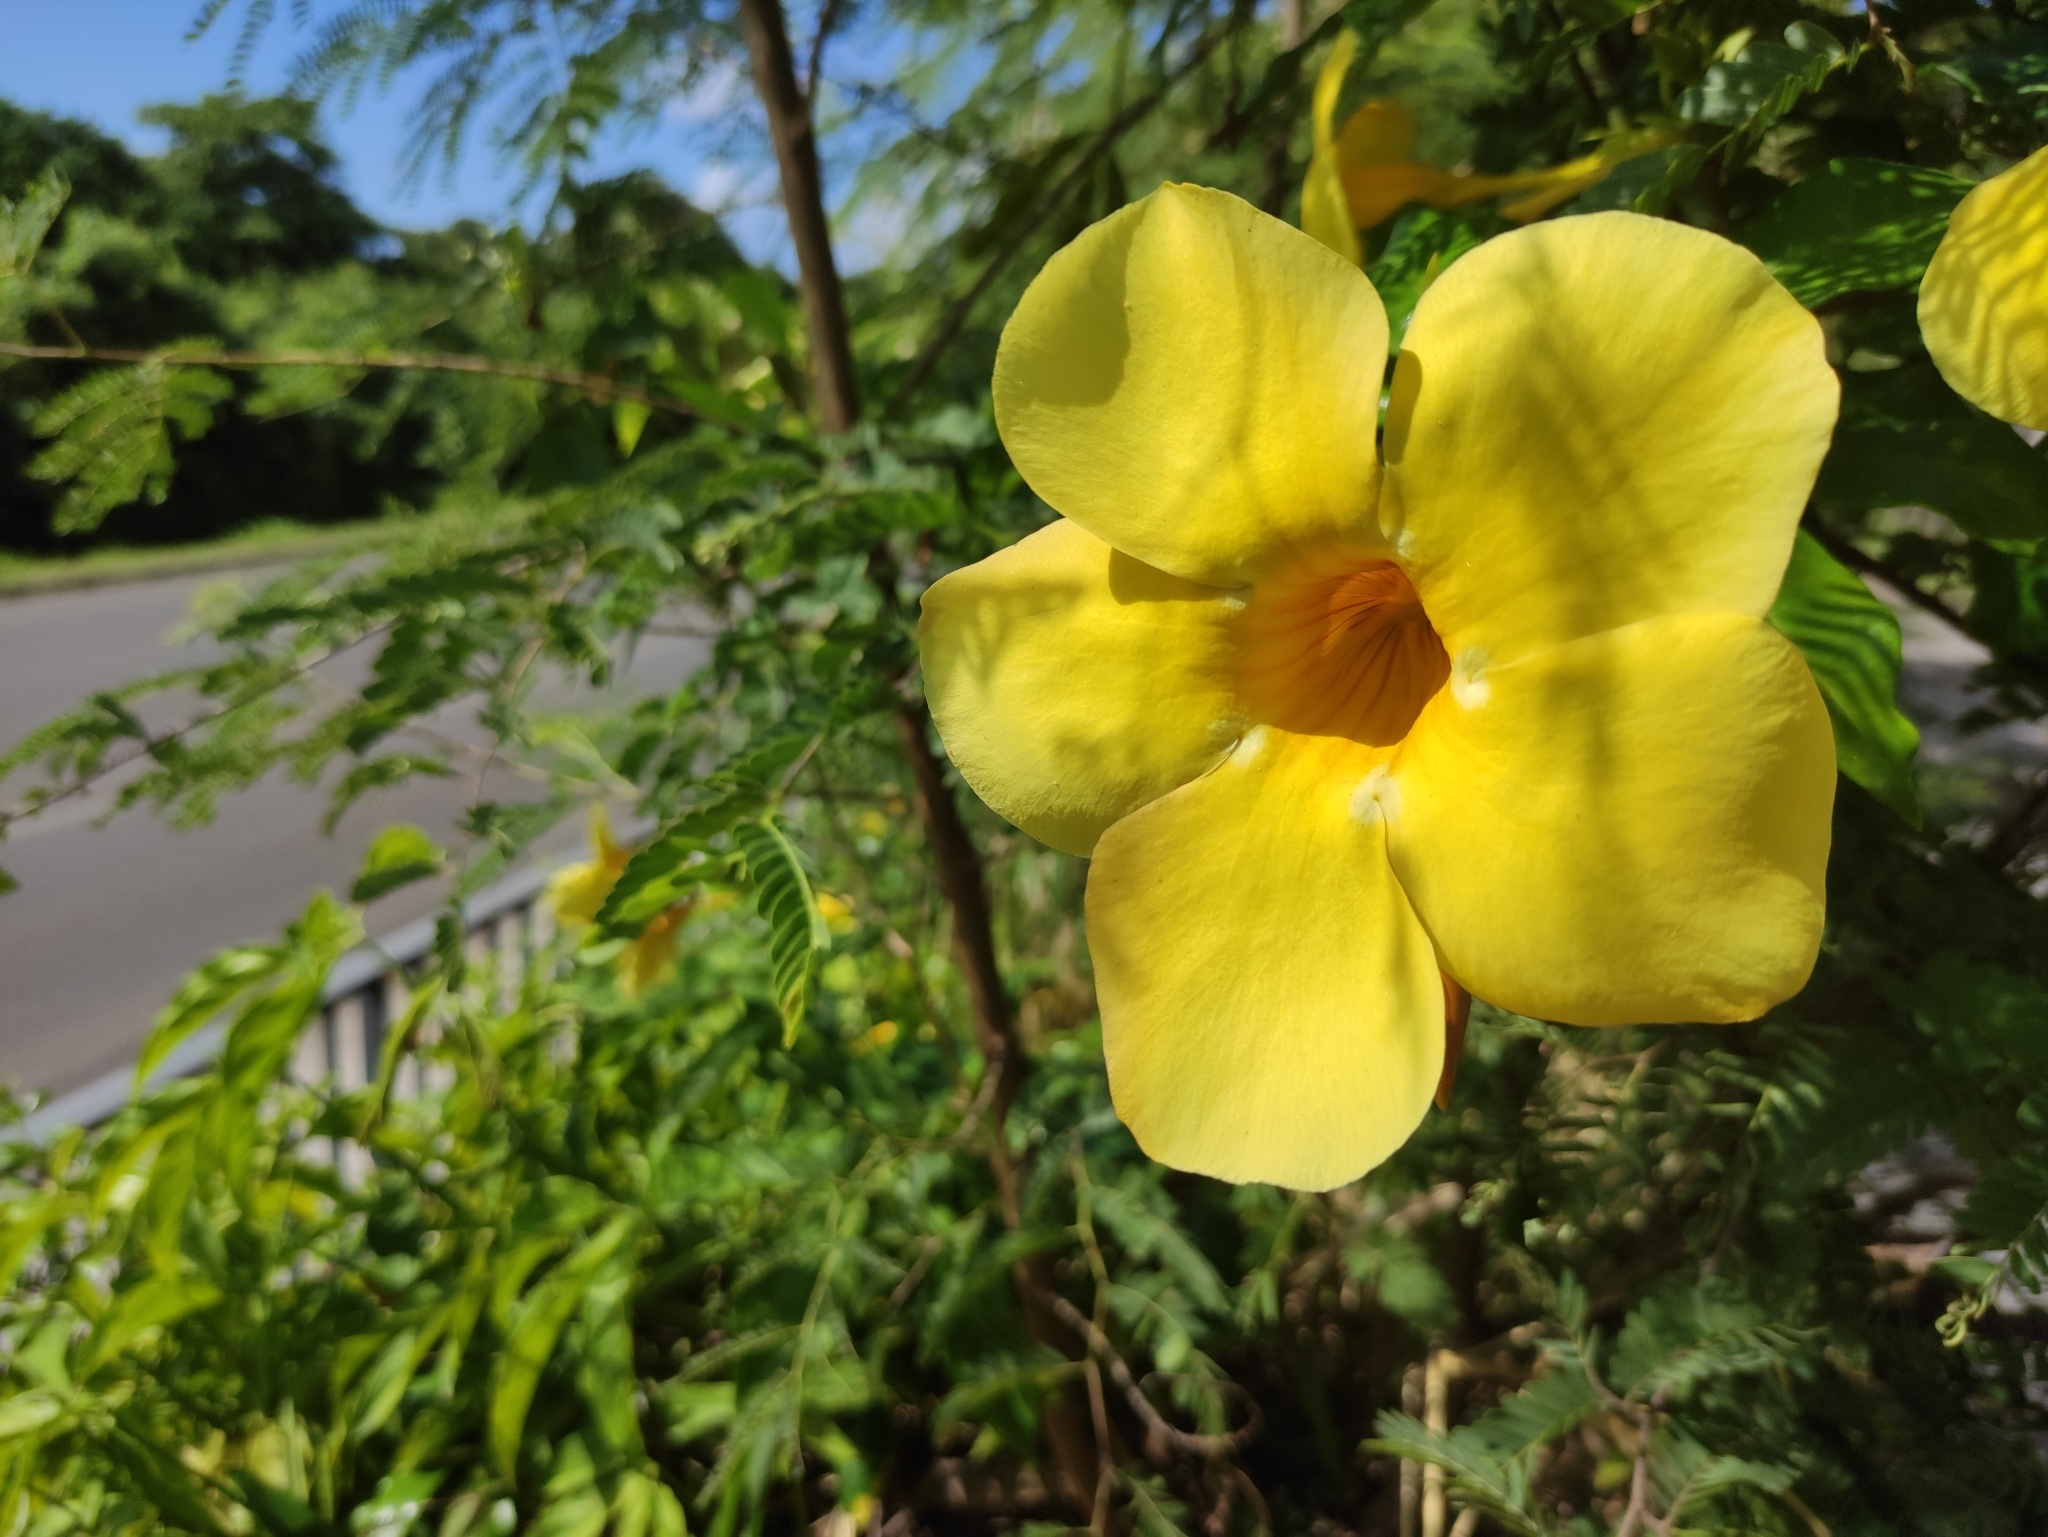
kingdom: Plantae
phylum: Tracheophyta
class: Magnoliopsida
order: Gentianales
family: Apocynaceae
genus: Allamanda
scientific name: Allamanda cathartica
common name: Golden trumpet
